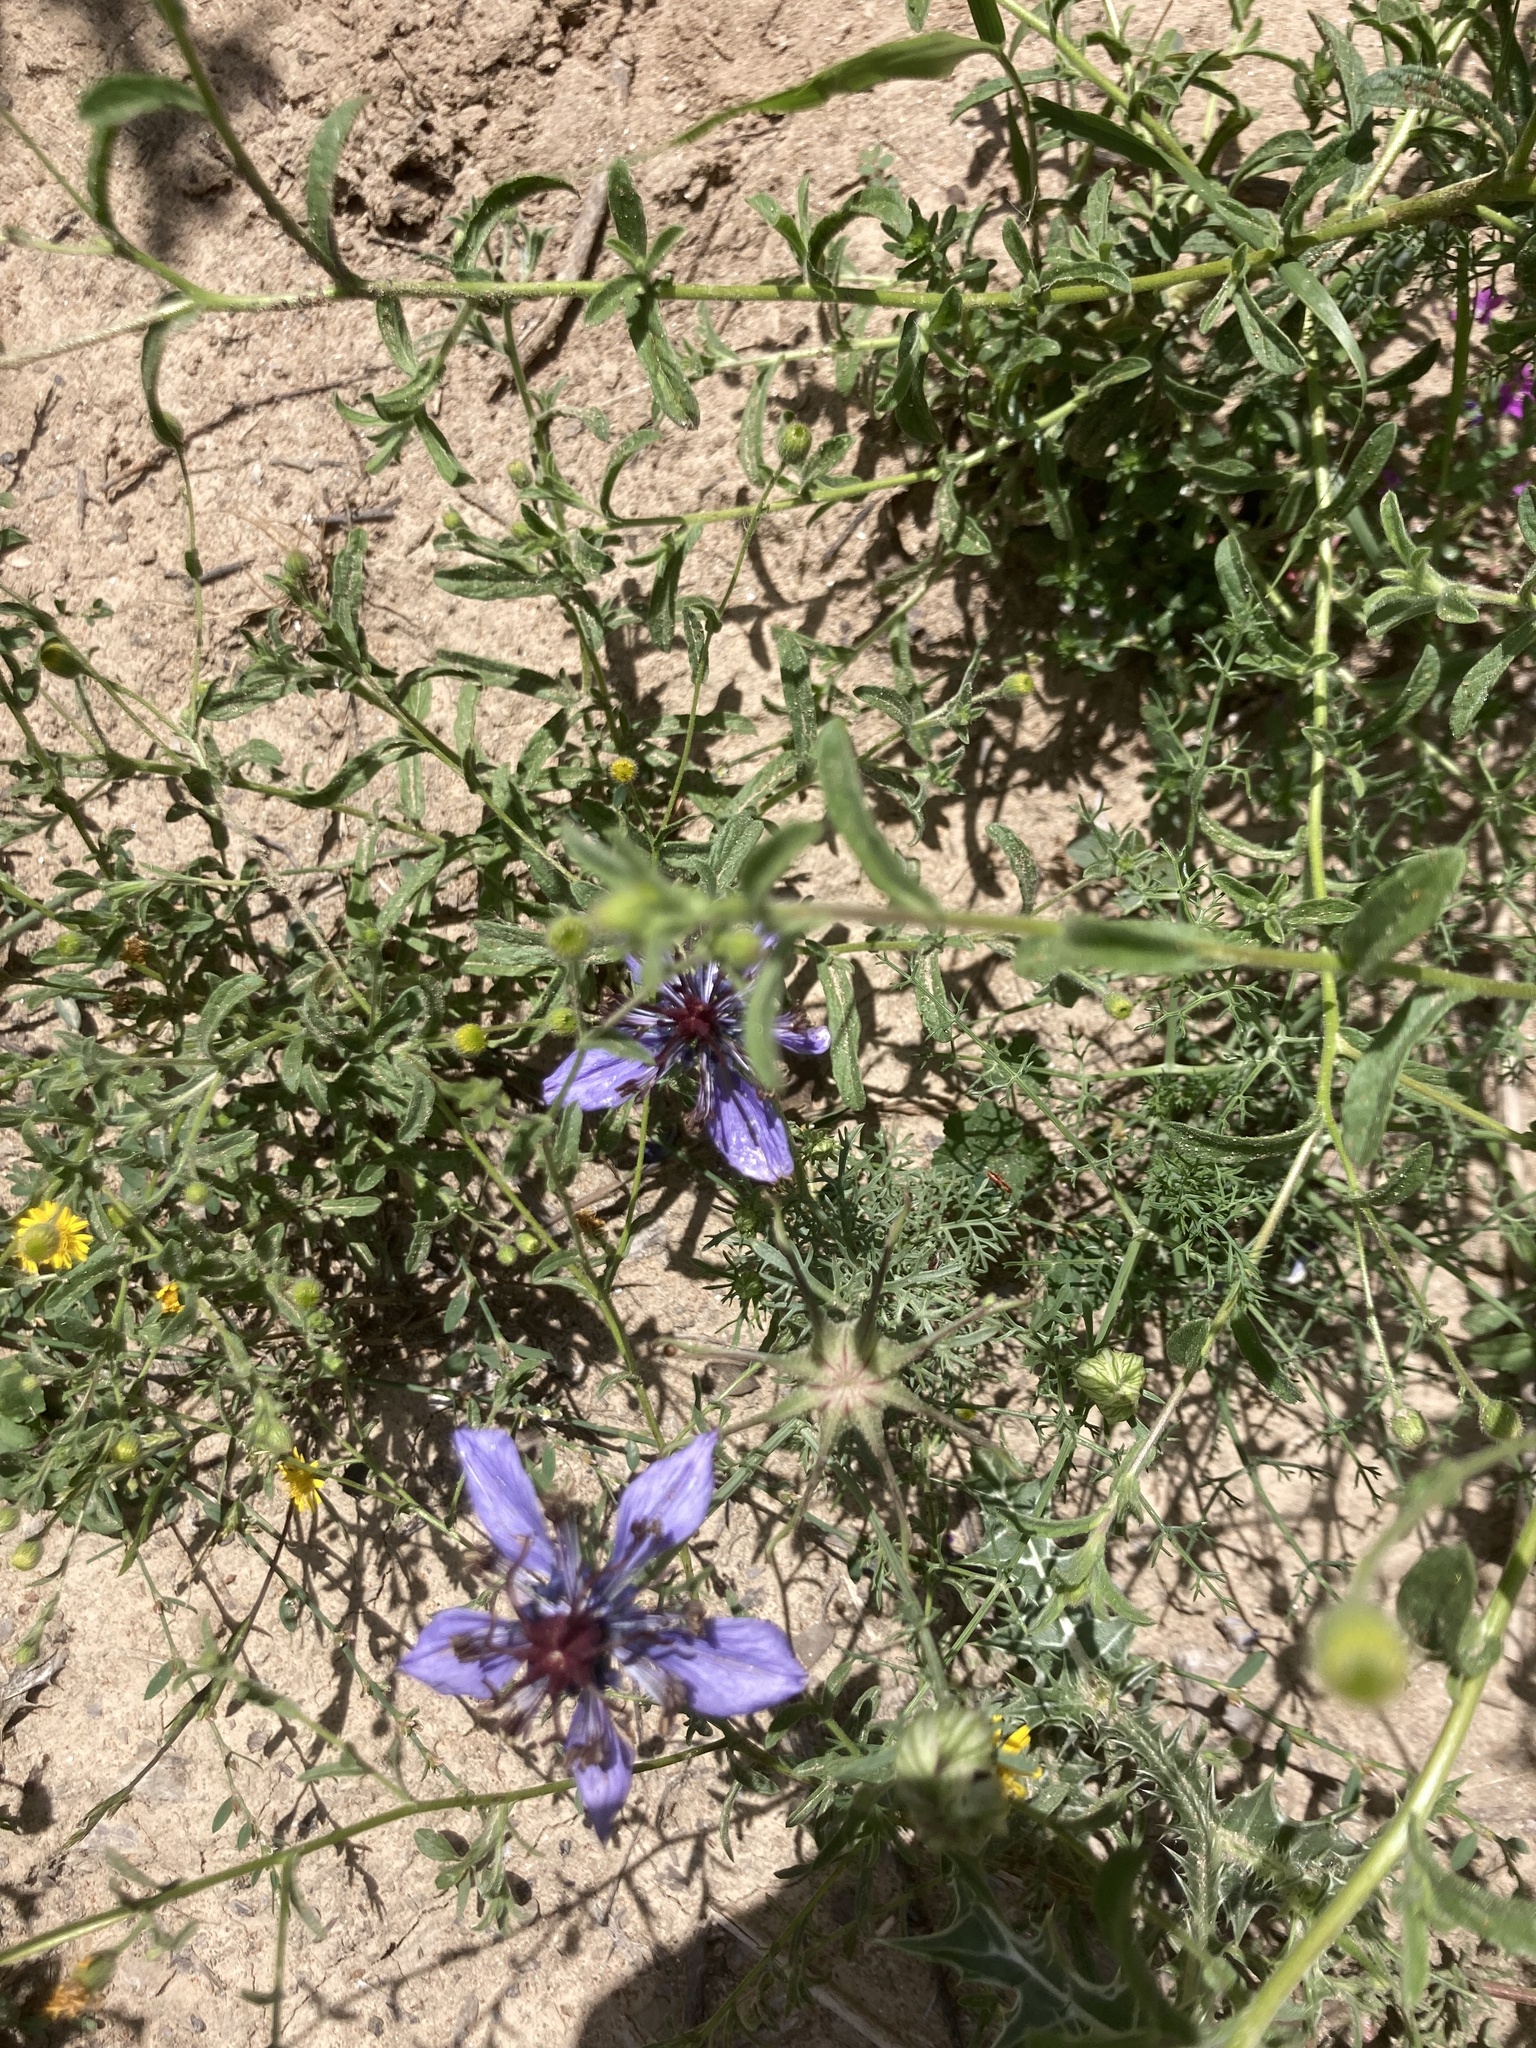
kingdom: Plantae
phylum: Tracheophyta
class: Magnoliopsida
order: Ranunculales
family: Ranunculaceae
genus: Nigella
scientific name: Nigella papillosa
